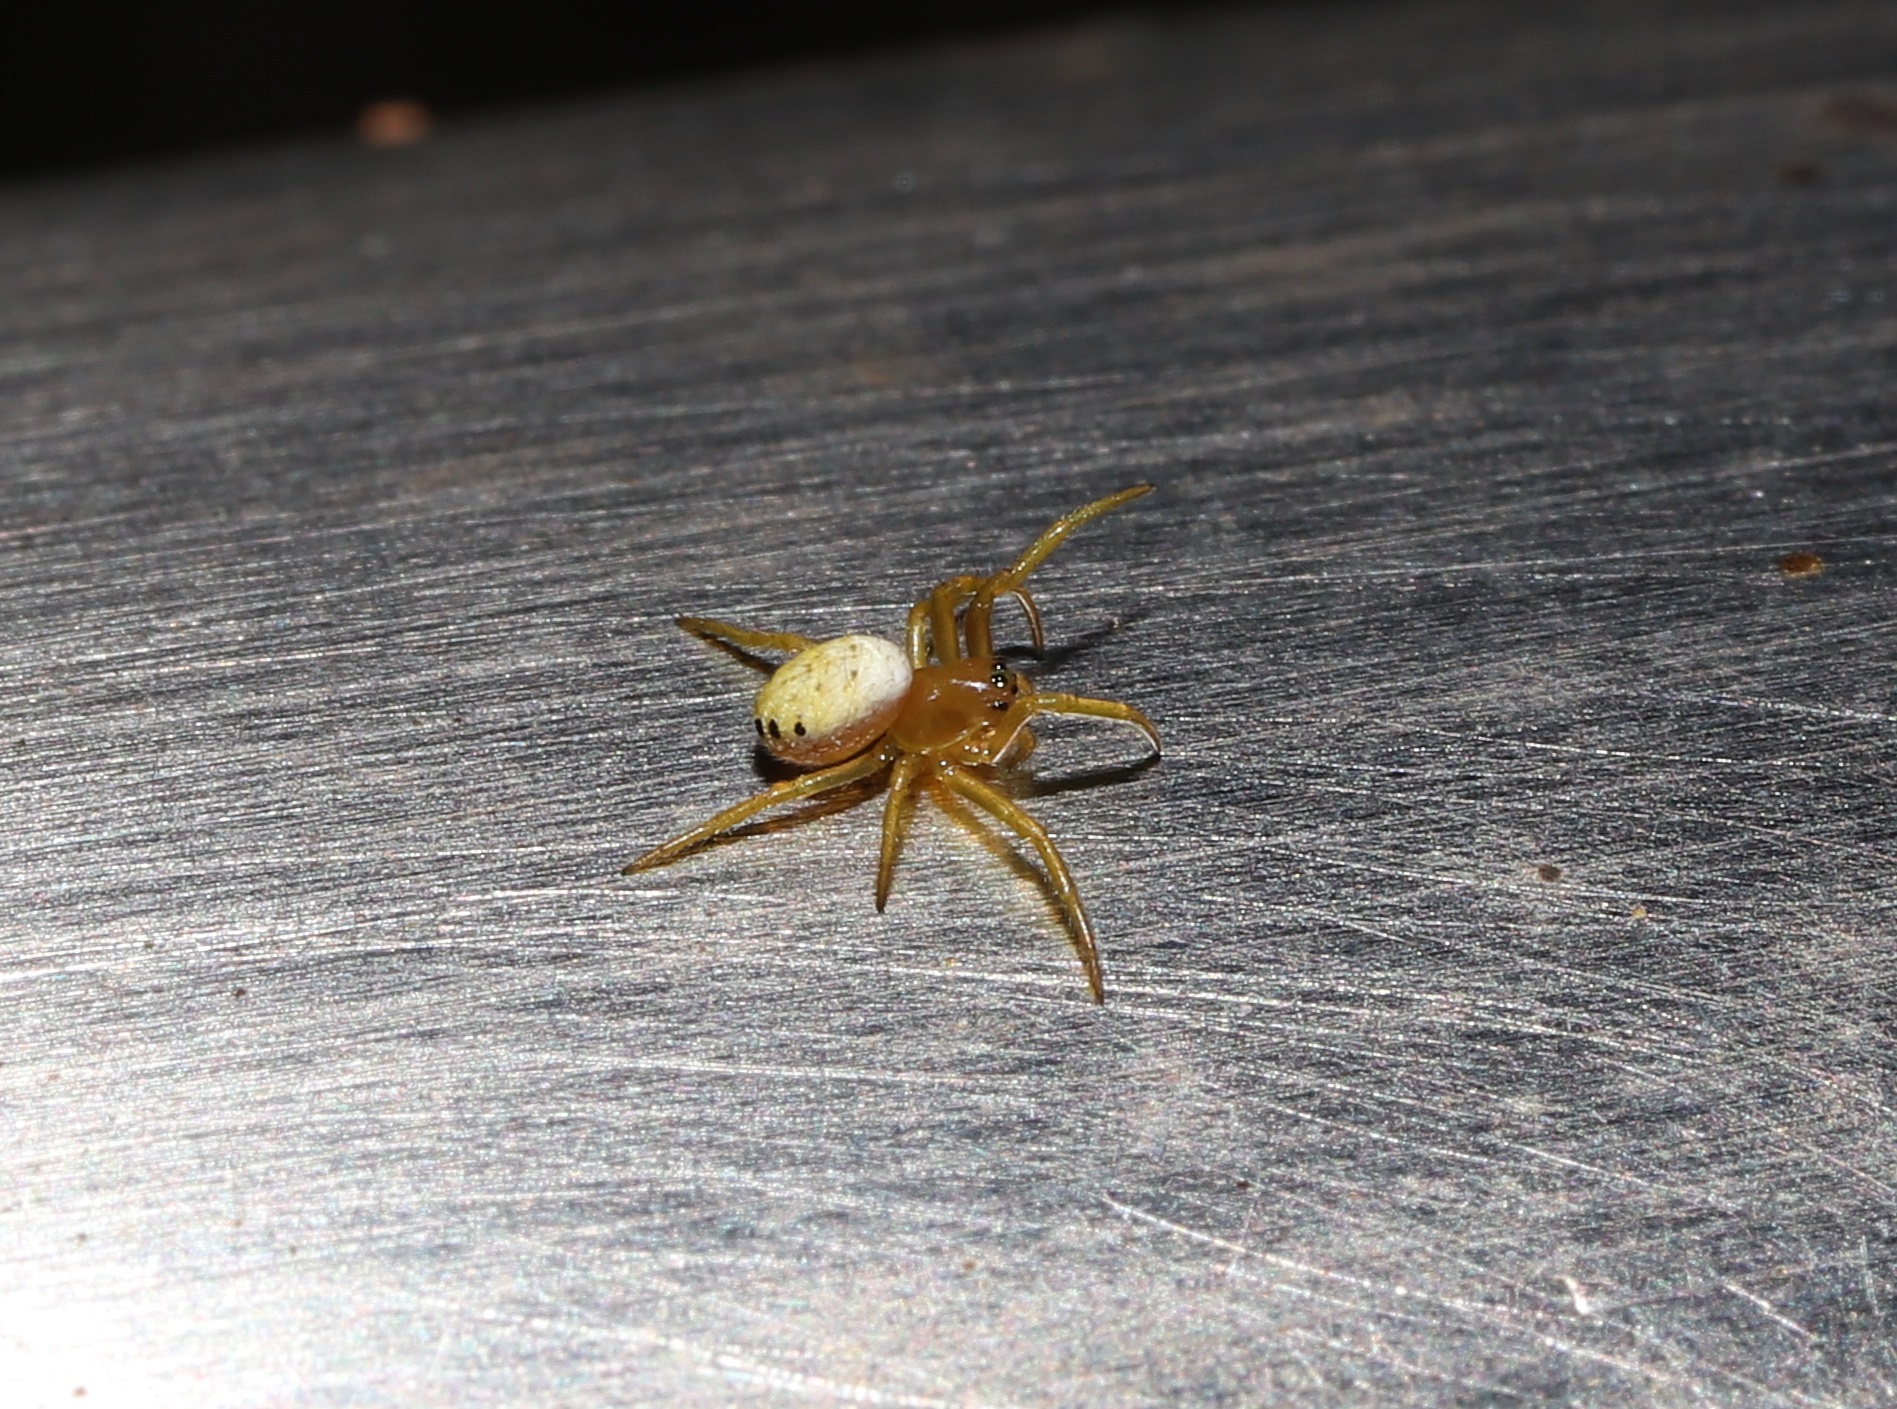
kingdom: Animalia
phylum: Arthropoda
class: Arachnida
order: Araneae
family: Araneidae
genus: Araniella
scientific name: Araniella displicata
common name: Sixspotted orb weaver
